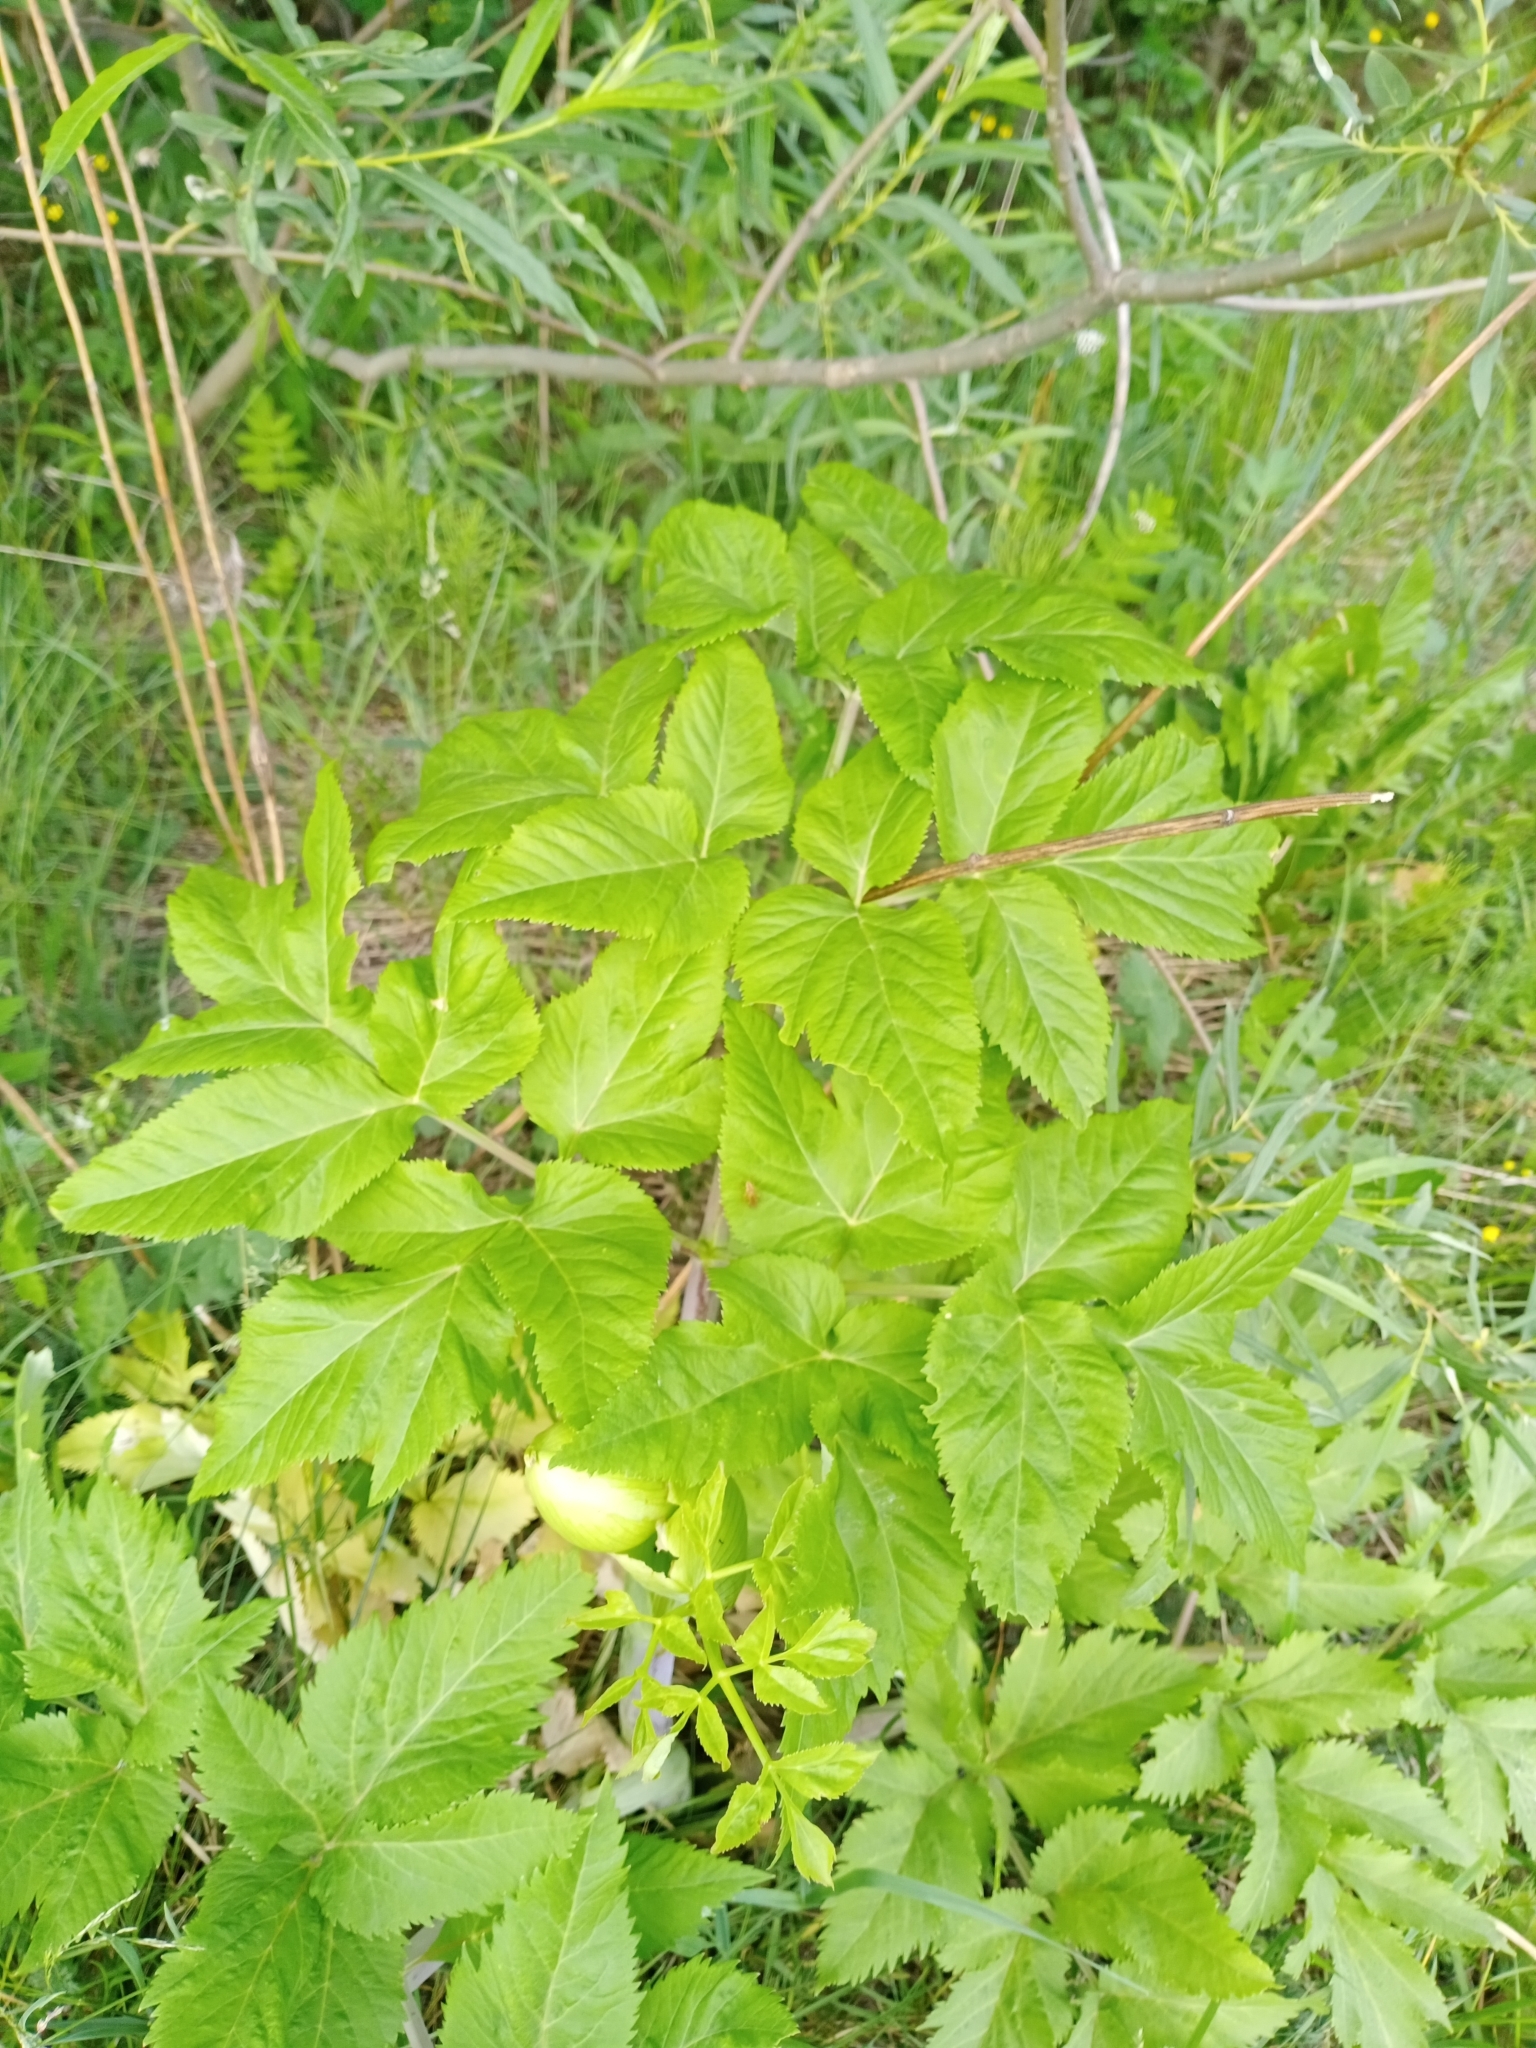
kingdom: Plantae
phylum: Tracheophyta
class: Magnoliopsida
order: Apiales
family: Apiaceae
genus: Angelica
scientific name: Angelica archangelica
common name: Garden angelica
